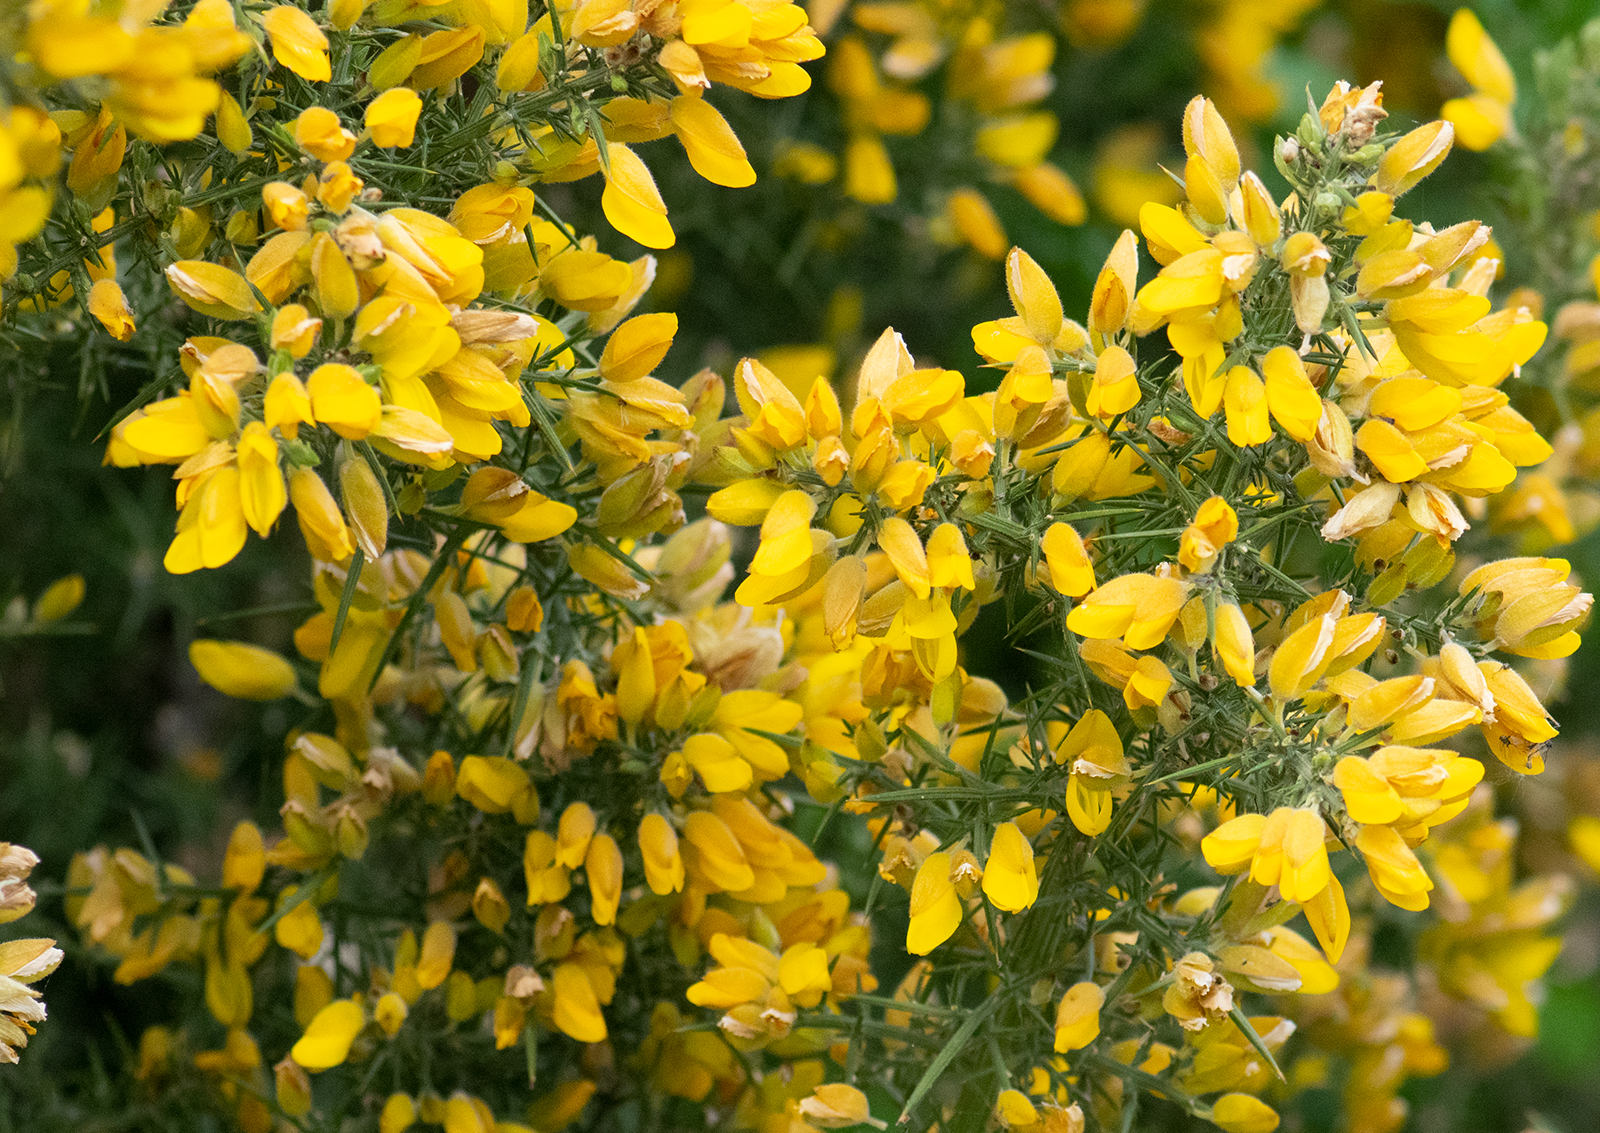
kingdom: Plantae
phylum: Tracheophyta
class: Magnoliopsida
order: Fabales
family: Fabaceae
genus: Ulex
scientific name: Ulex europaeus
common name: Common gorse
